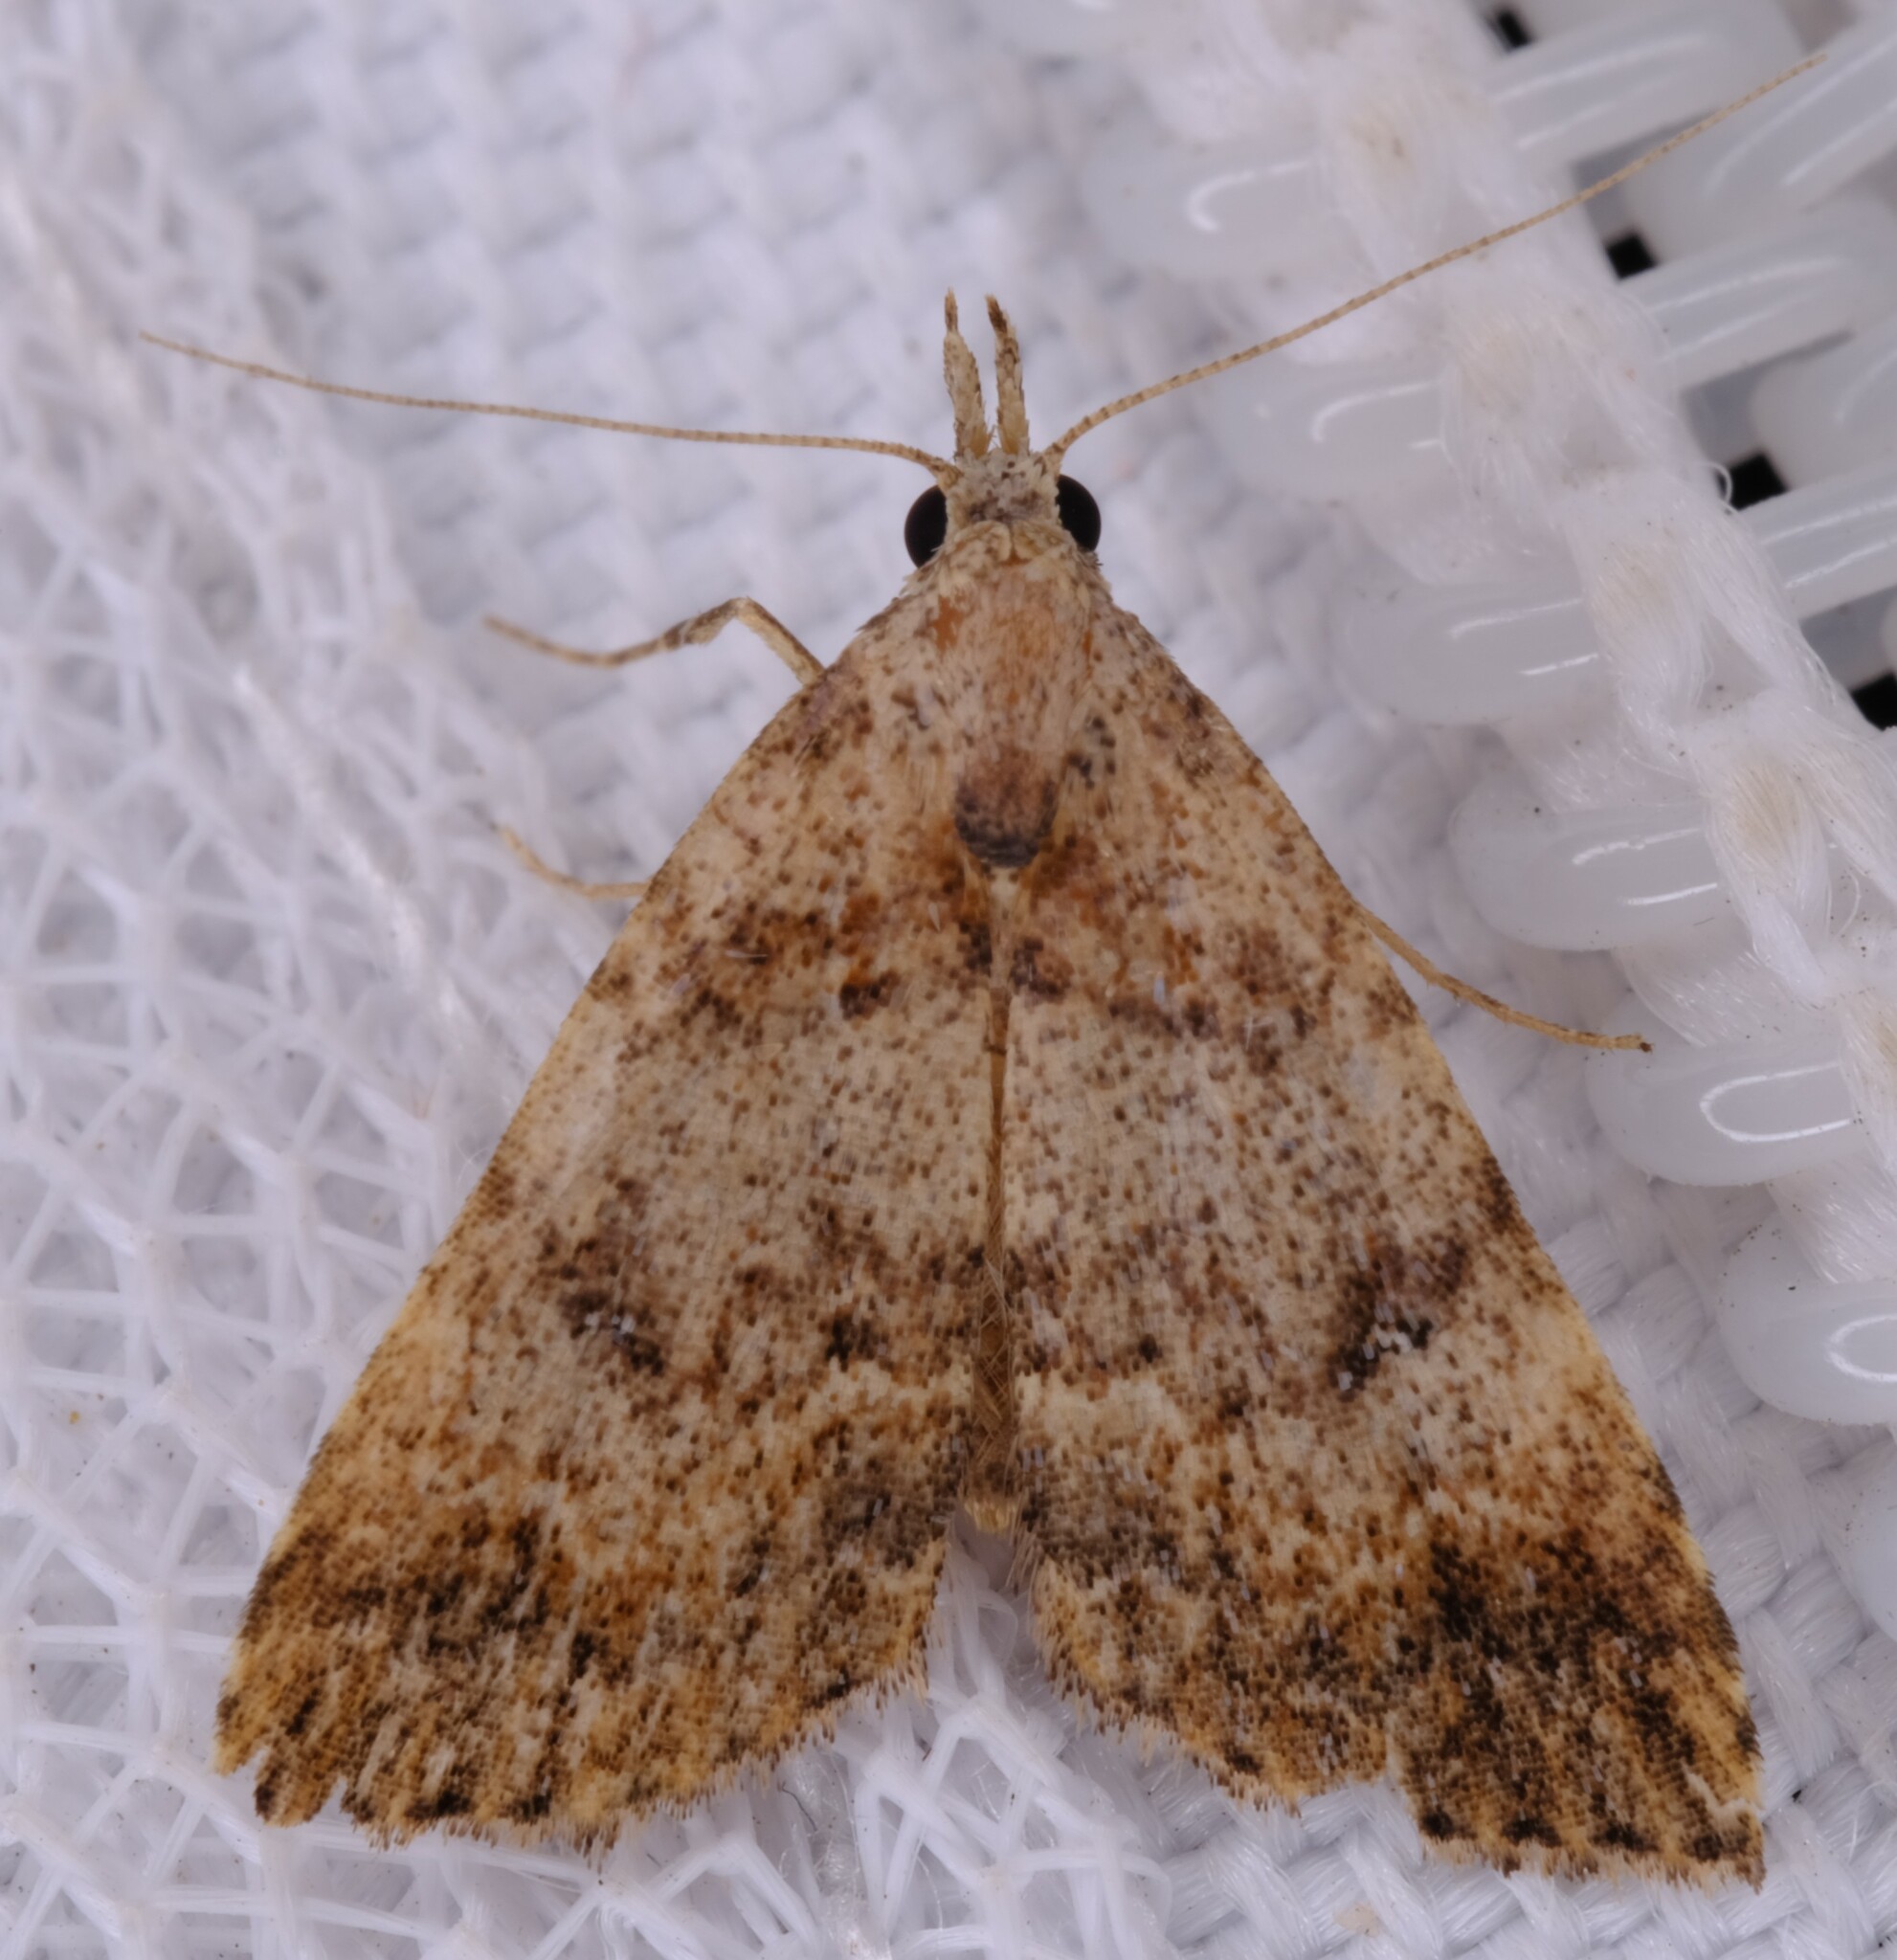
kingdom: Animalia
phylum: Arthropoda
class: Insecta
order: Lepidoptera
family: Erebidae
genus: Alapadna
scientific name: Alapadna pauropis
